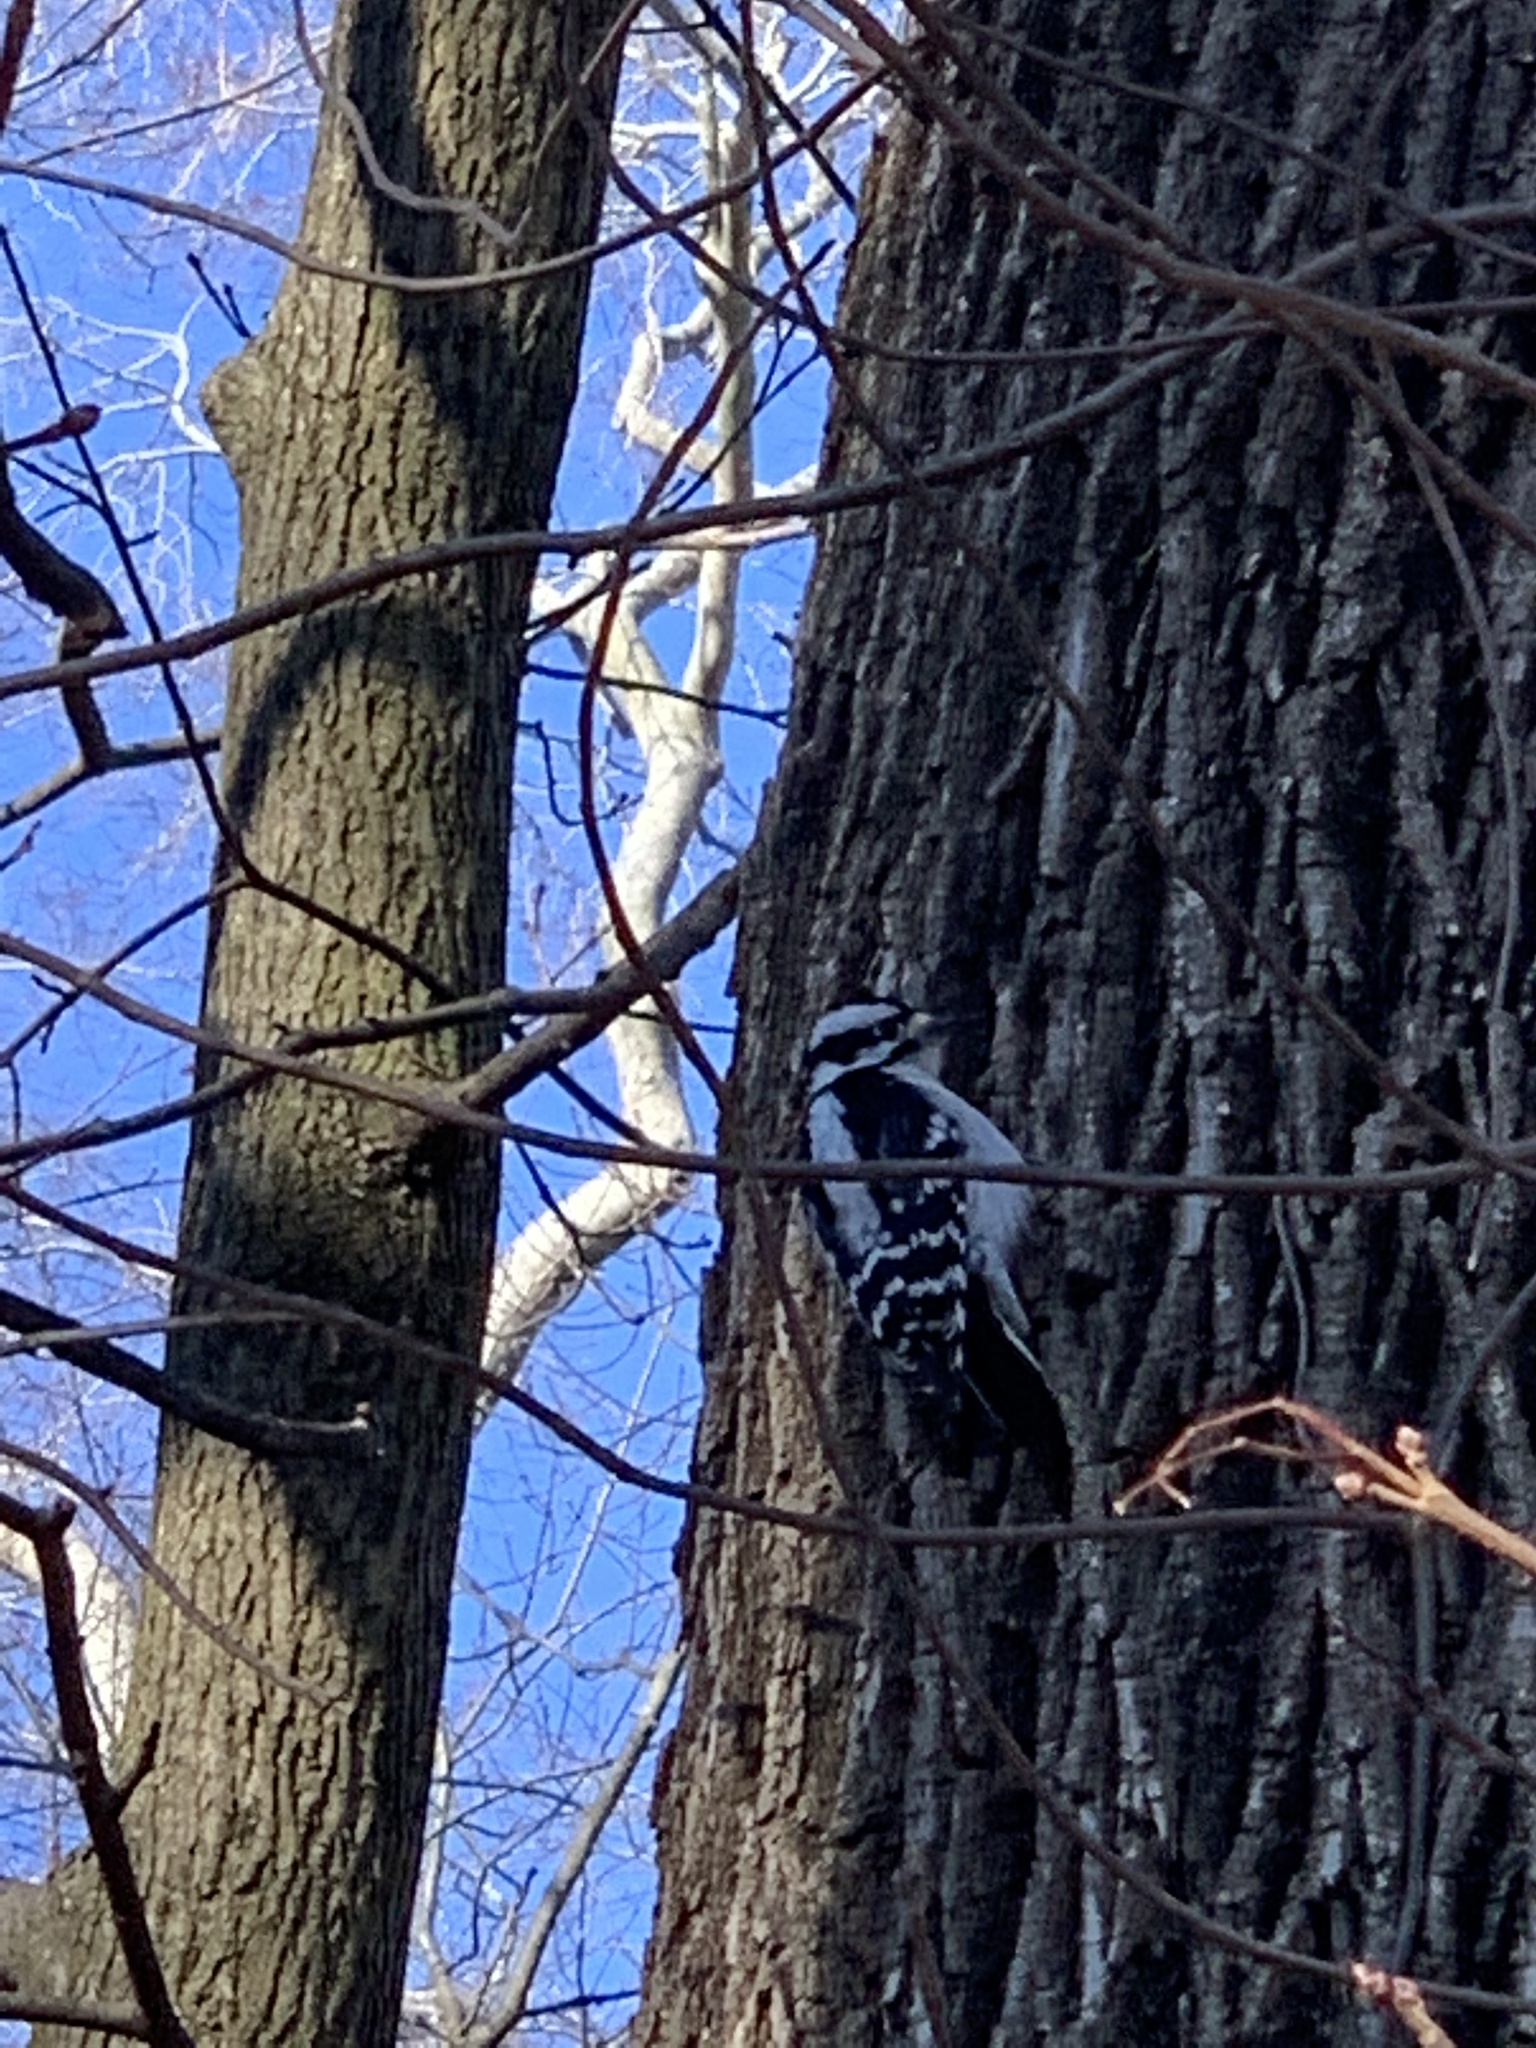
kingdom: Animalia
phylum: Chordata
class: Aves
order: Piciformes
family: Picidae
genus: Dryobates
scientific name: Dryobates pubescens
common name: Downy woodpecker
